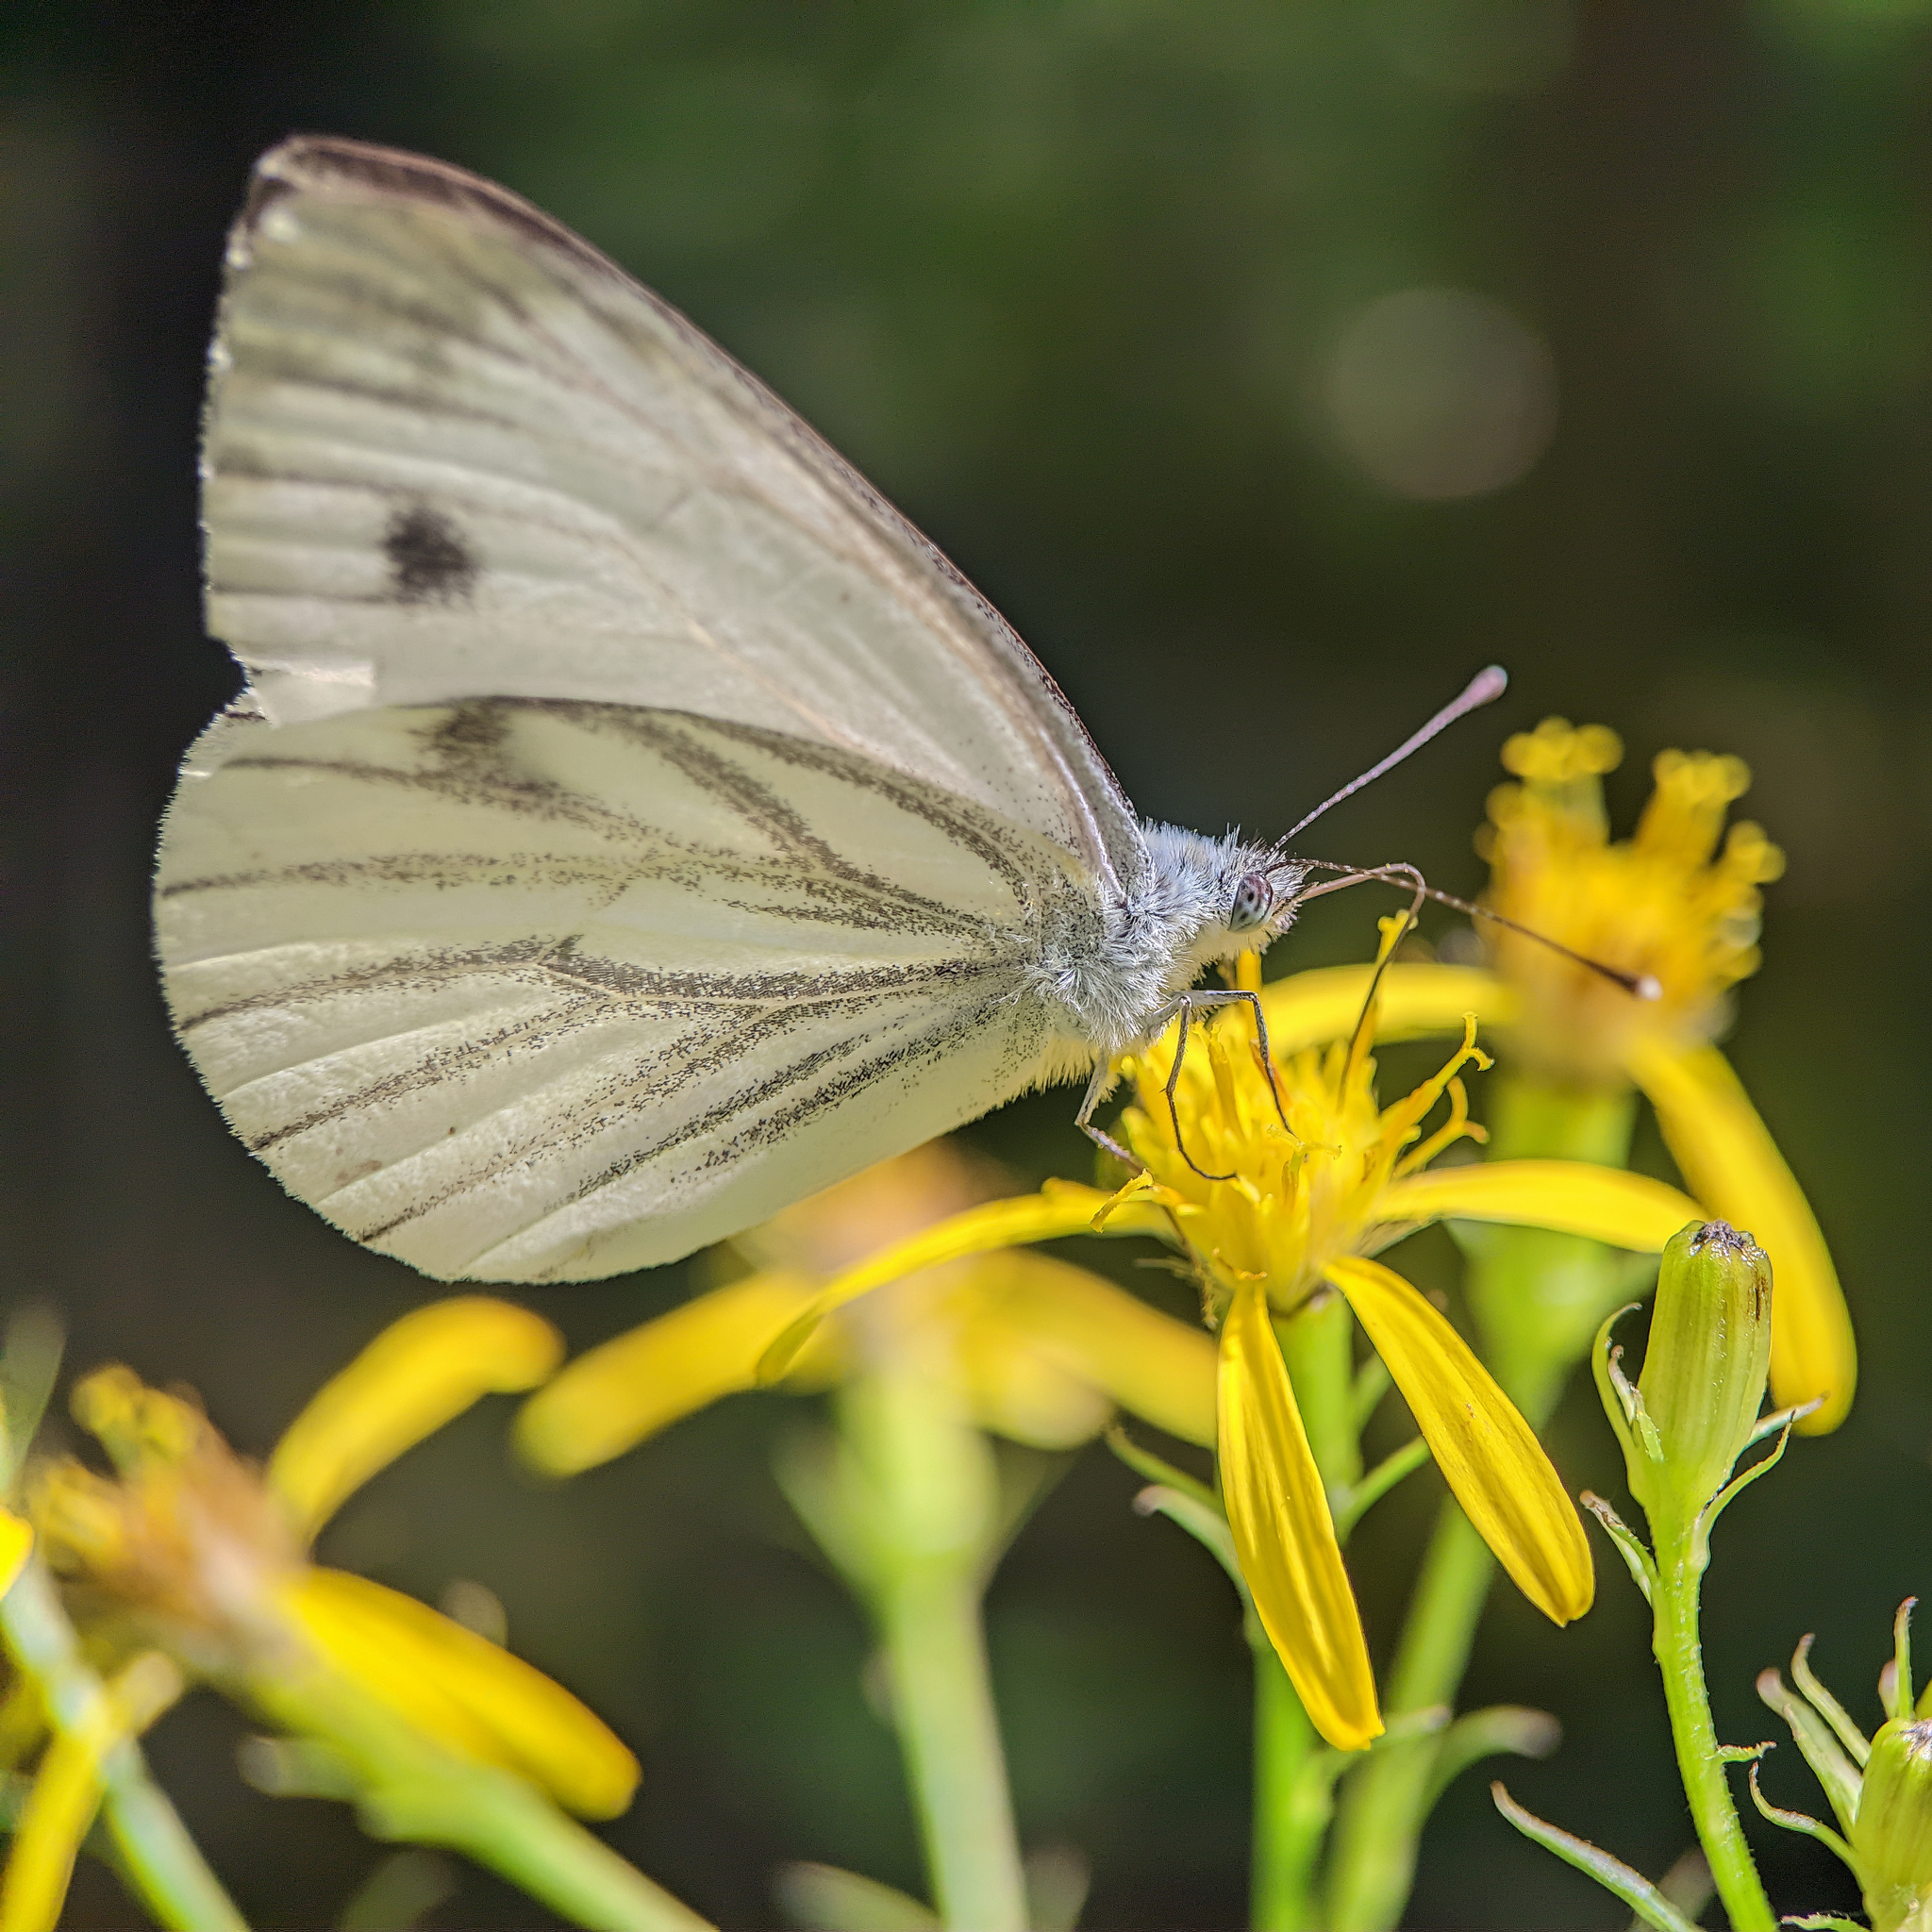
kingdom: Animalia
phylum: Arthropoda
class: Insecta
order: Lepidoptera
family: Pieridae
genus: Pieris
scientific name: Pieris napi
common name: Green-veined white
